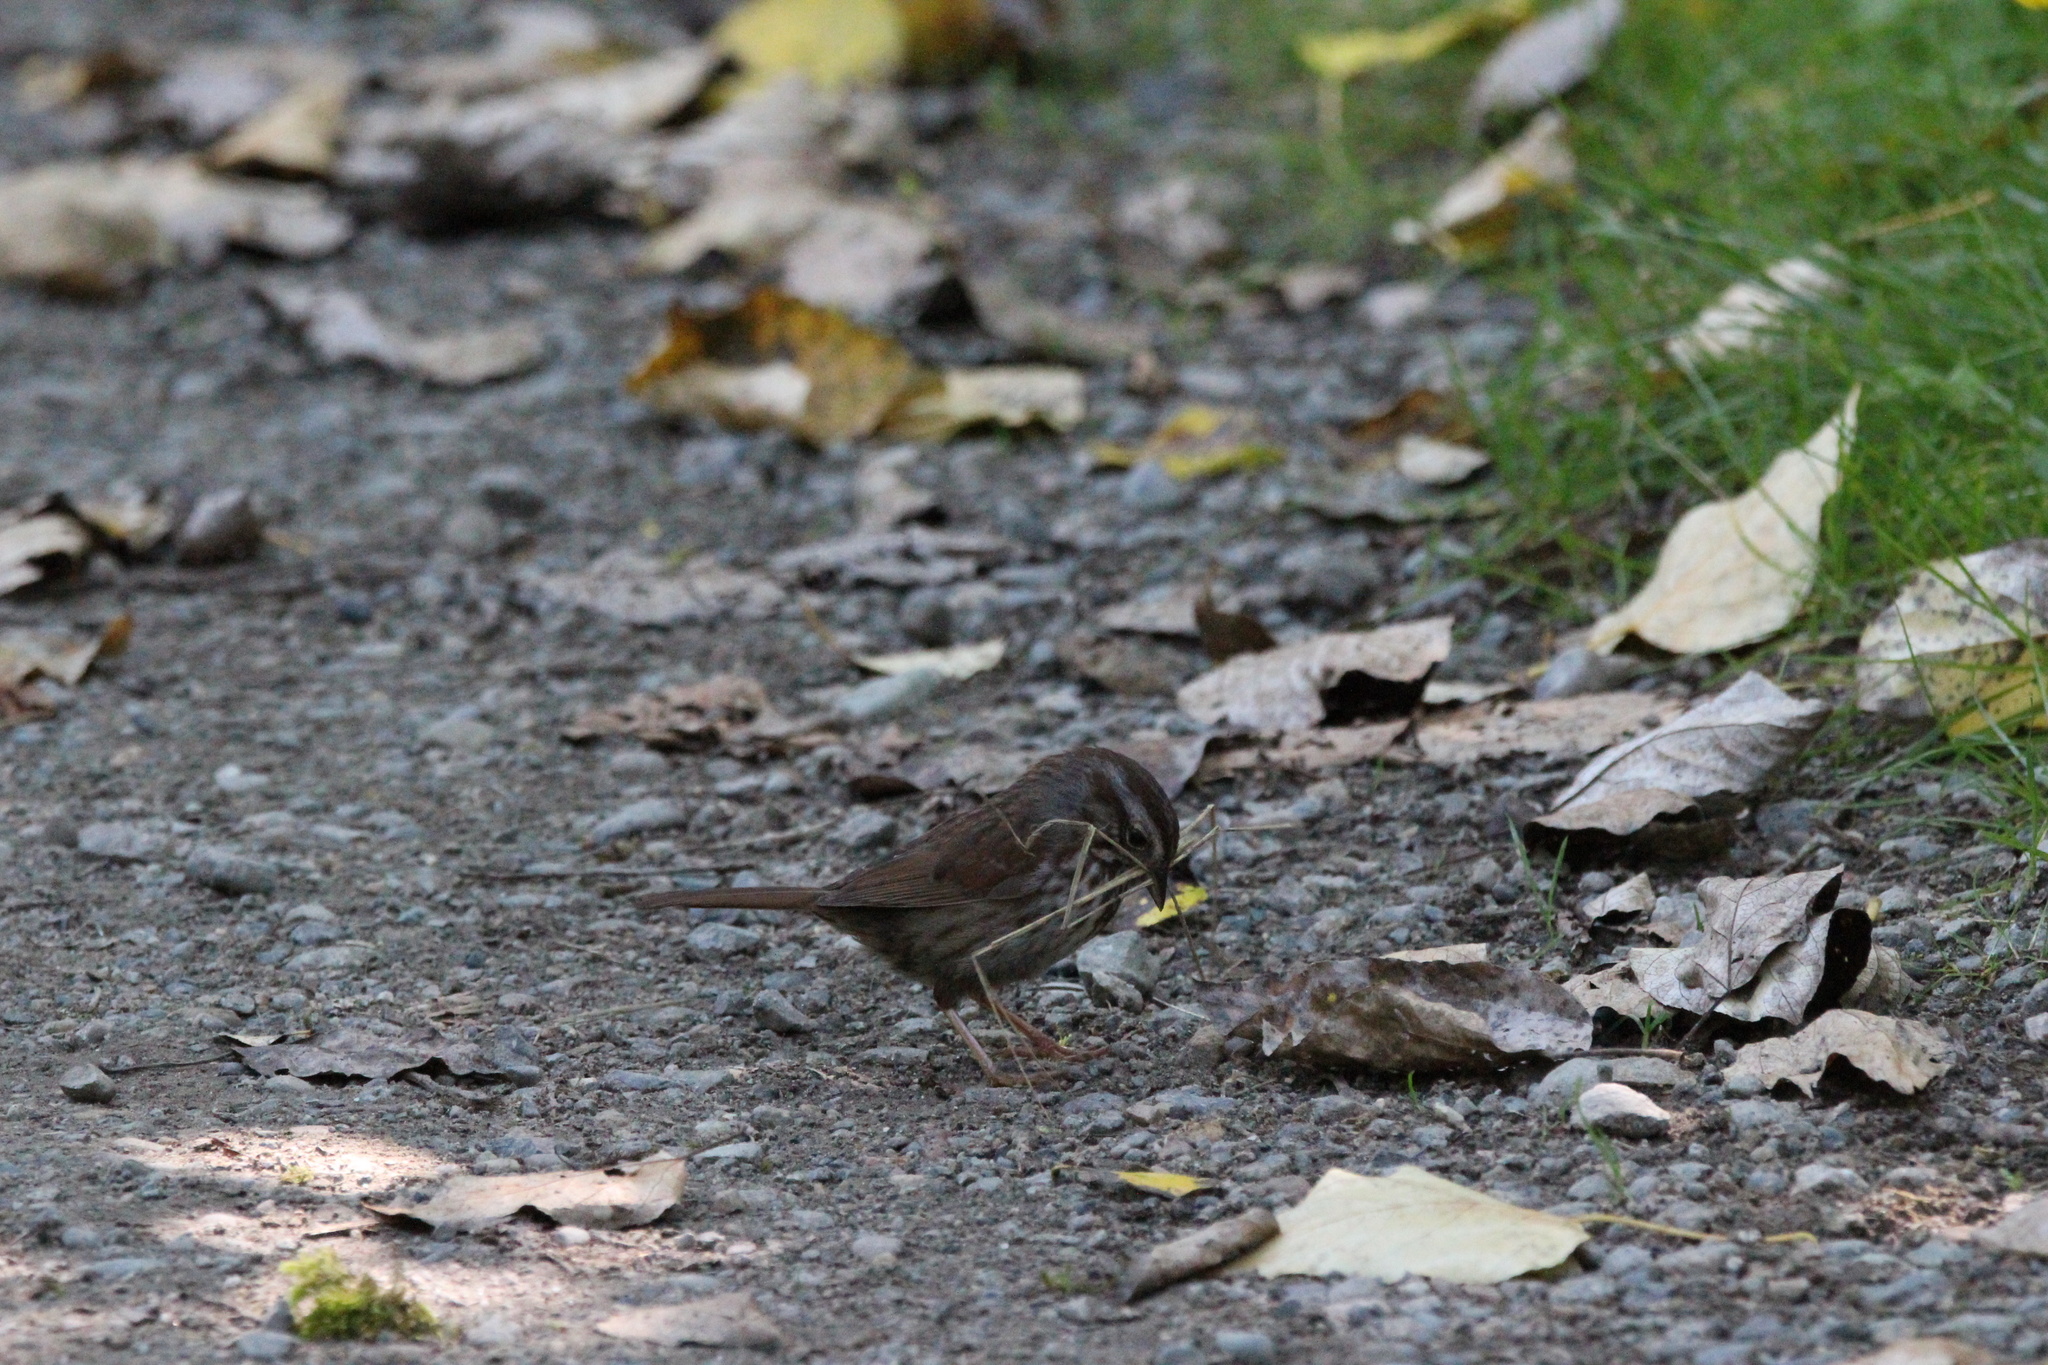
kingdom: Animalia
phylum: Chordata
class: Aves
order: Passeriformes
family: Passerellidae
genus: Melospiza
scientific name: Melospiza melodia
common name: Song sparrow
